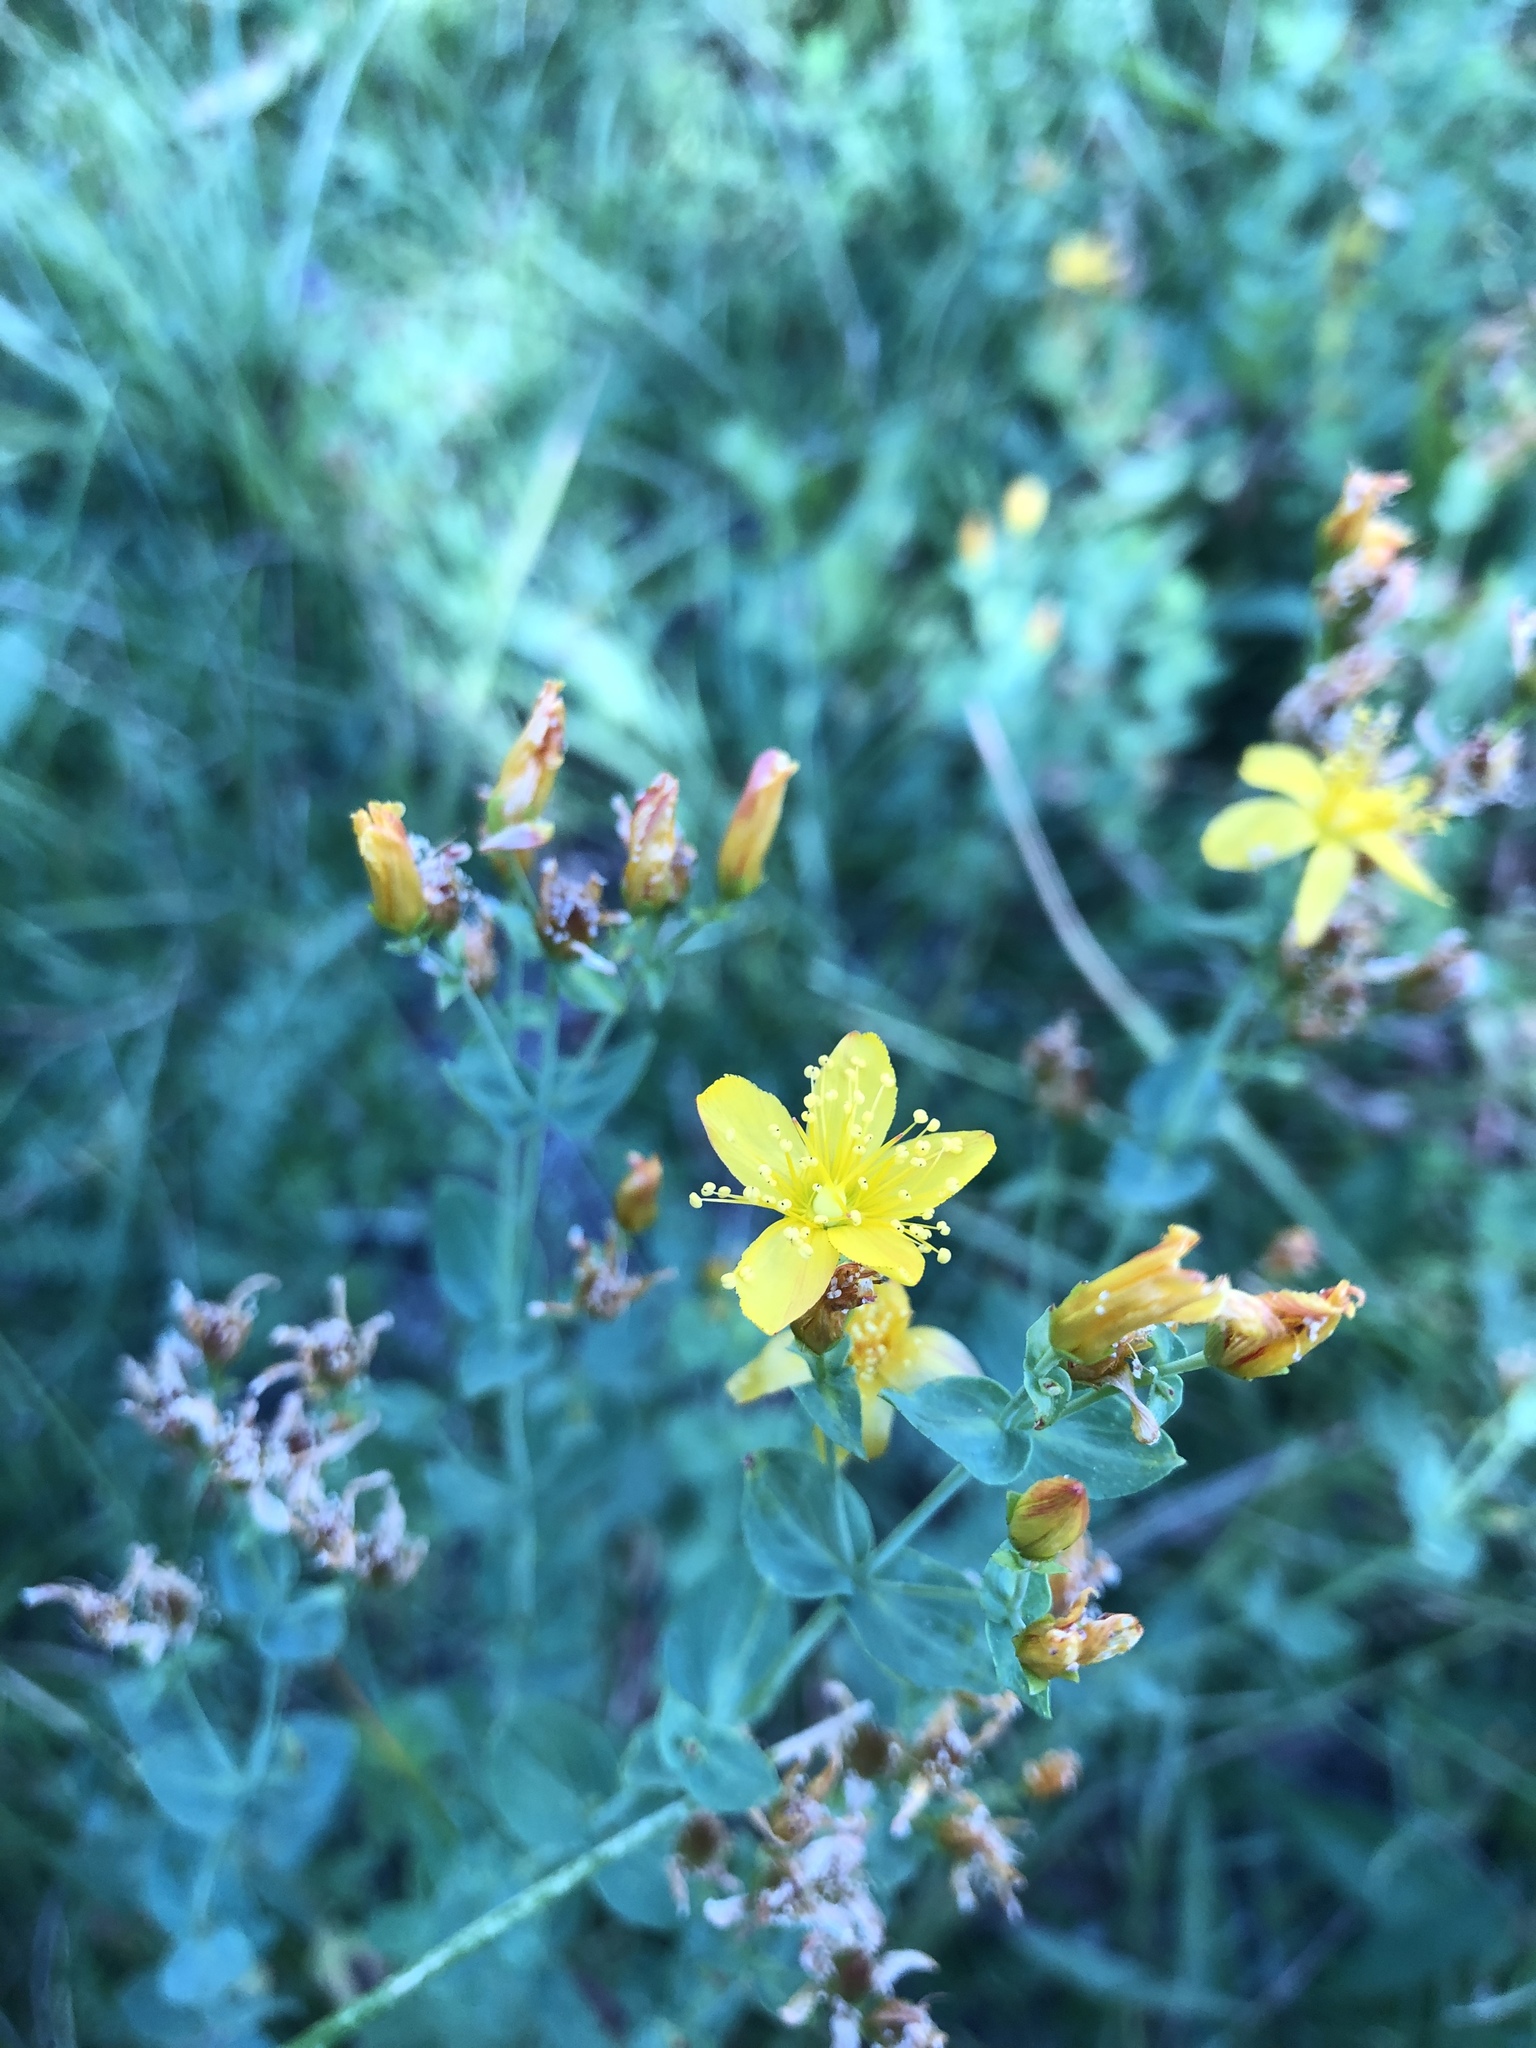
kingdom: Plantae
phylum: Tracheophyta
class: Magnoliopsida
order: Malpighiales
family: Hypericaceae
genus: Hypericum
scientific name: Hypericum scouleri
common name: Scouler's st. john's-wort
